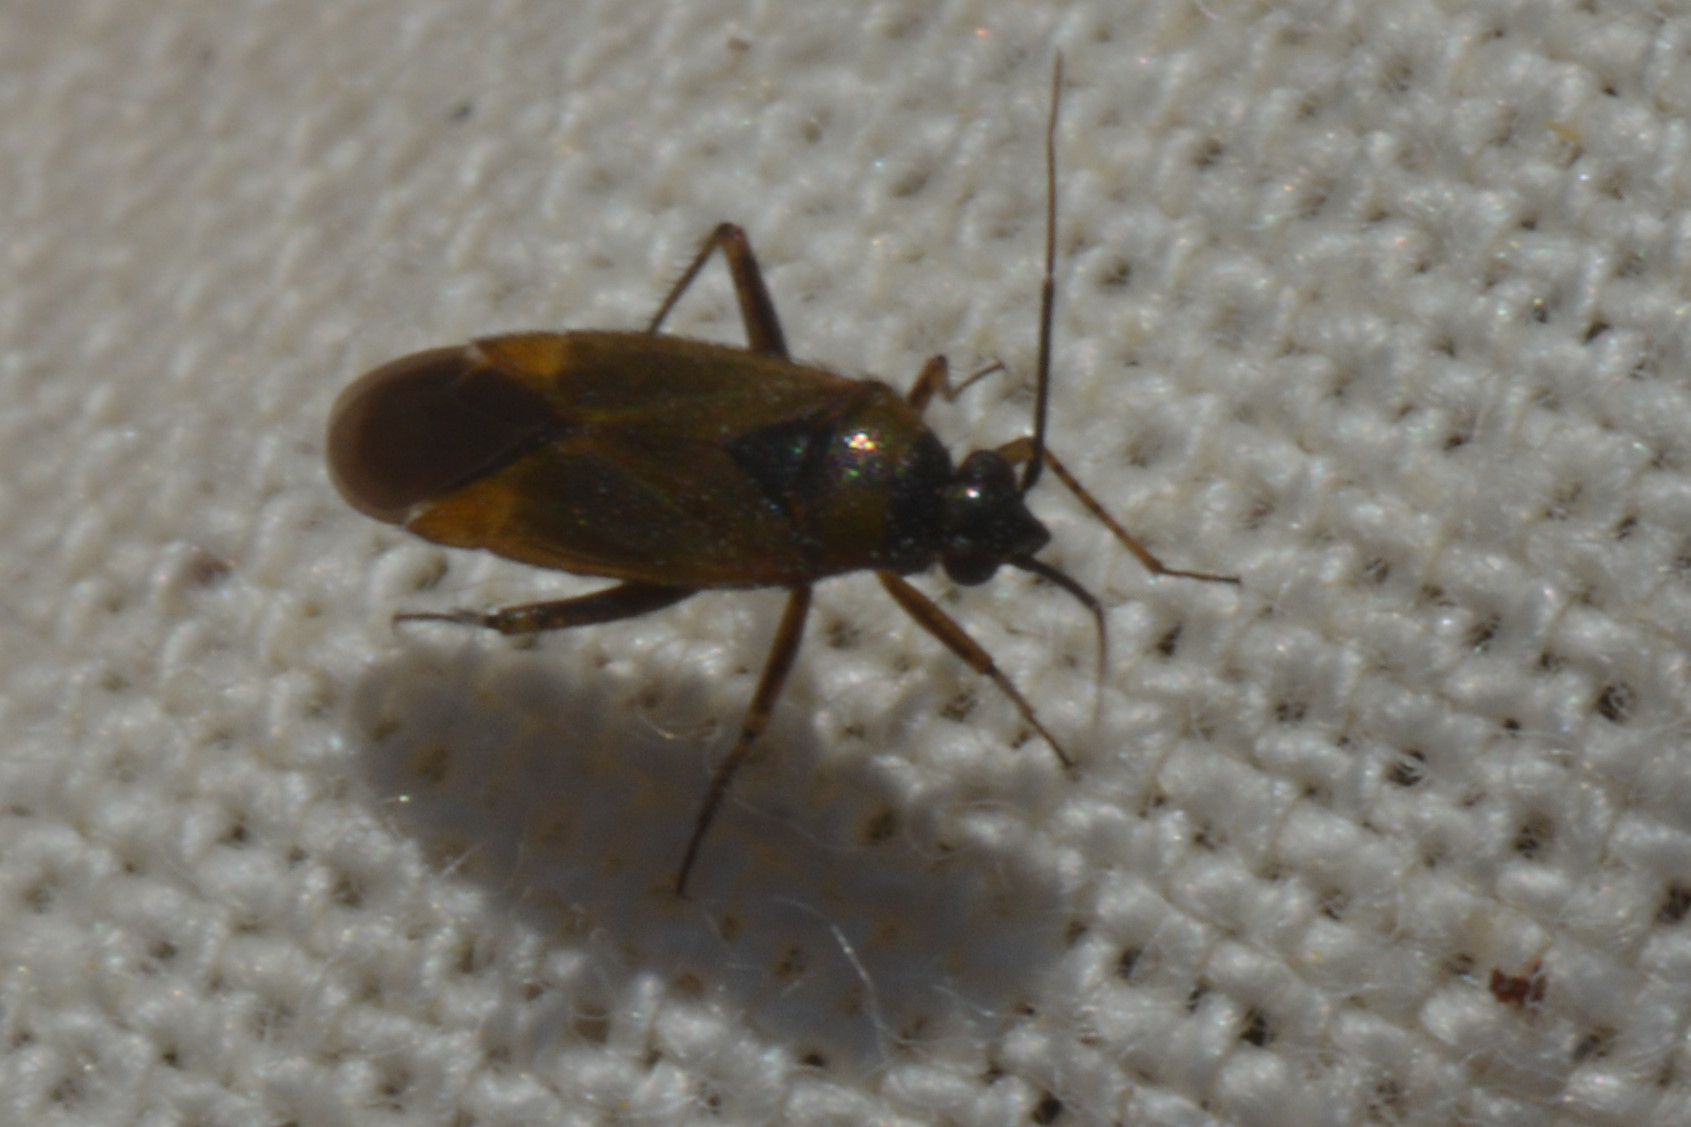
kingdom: Animalia
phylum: Arthropoda
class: Insecta
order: Hemiptera
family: Miridae
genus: Plagiognathus
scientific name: Plagiognathus arbustorum
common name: Plant bug
